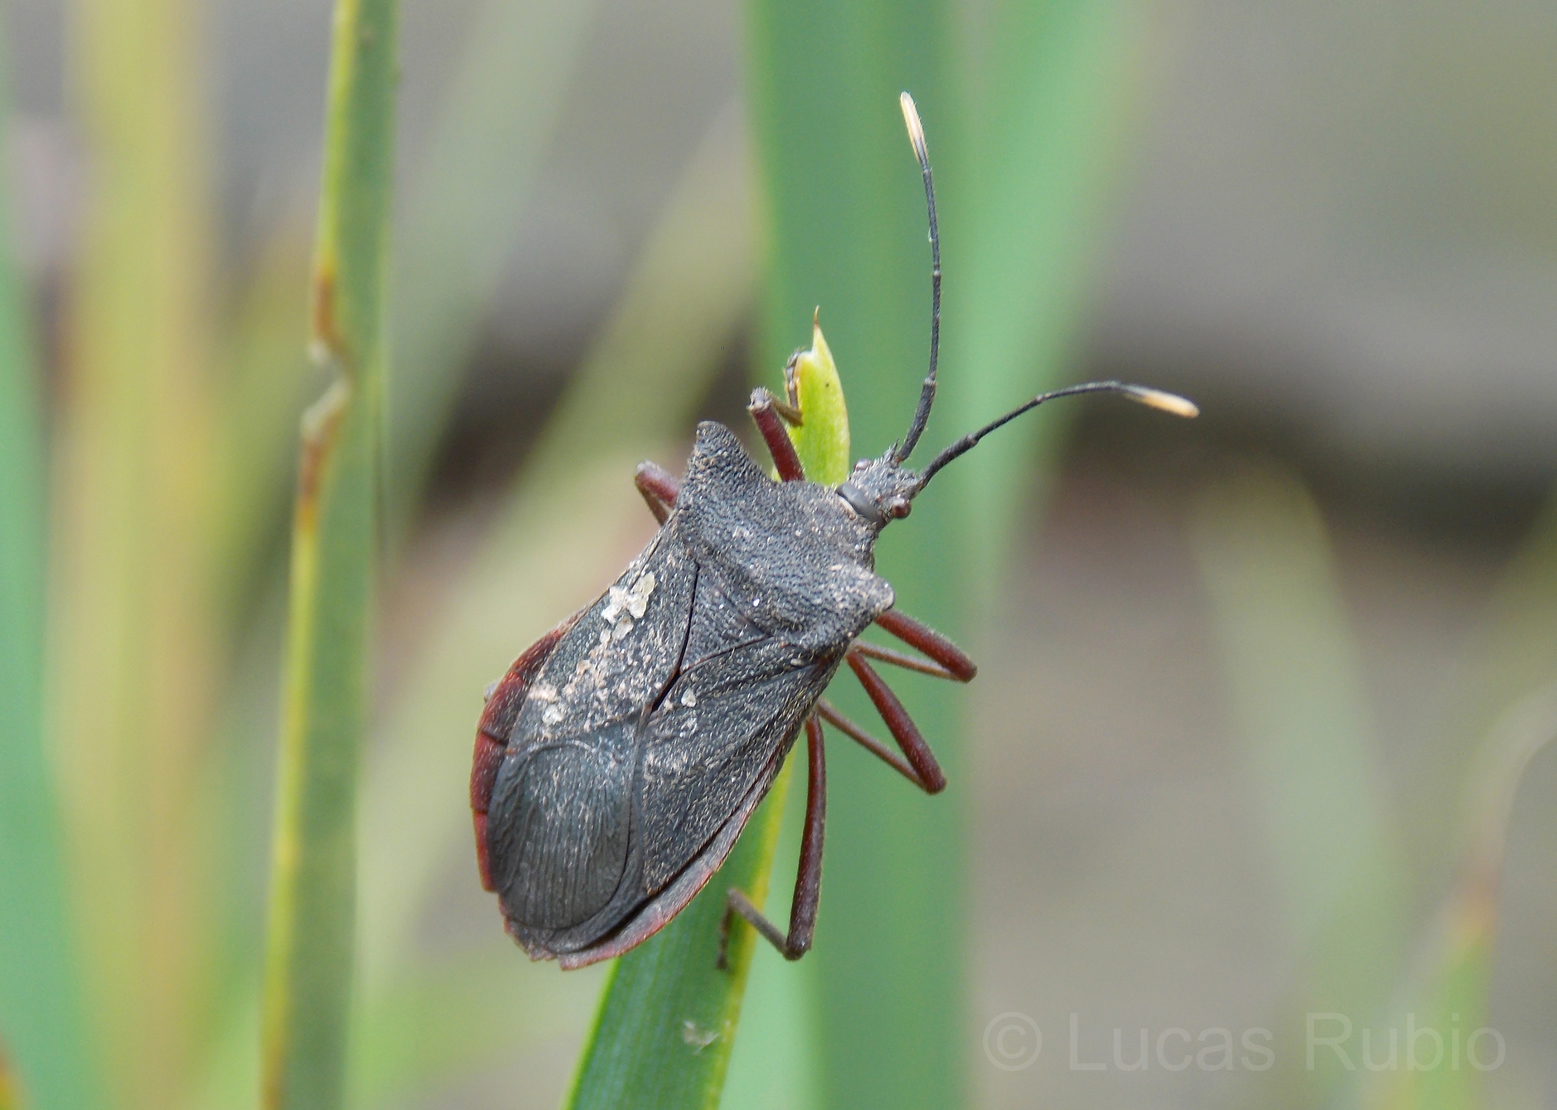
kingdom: Animalia
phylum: Arthropoda
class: Insecta
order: Hemiptera
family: Coreidae
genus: Anasa
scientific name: Anasa apicalis
